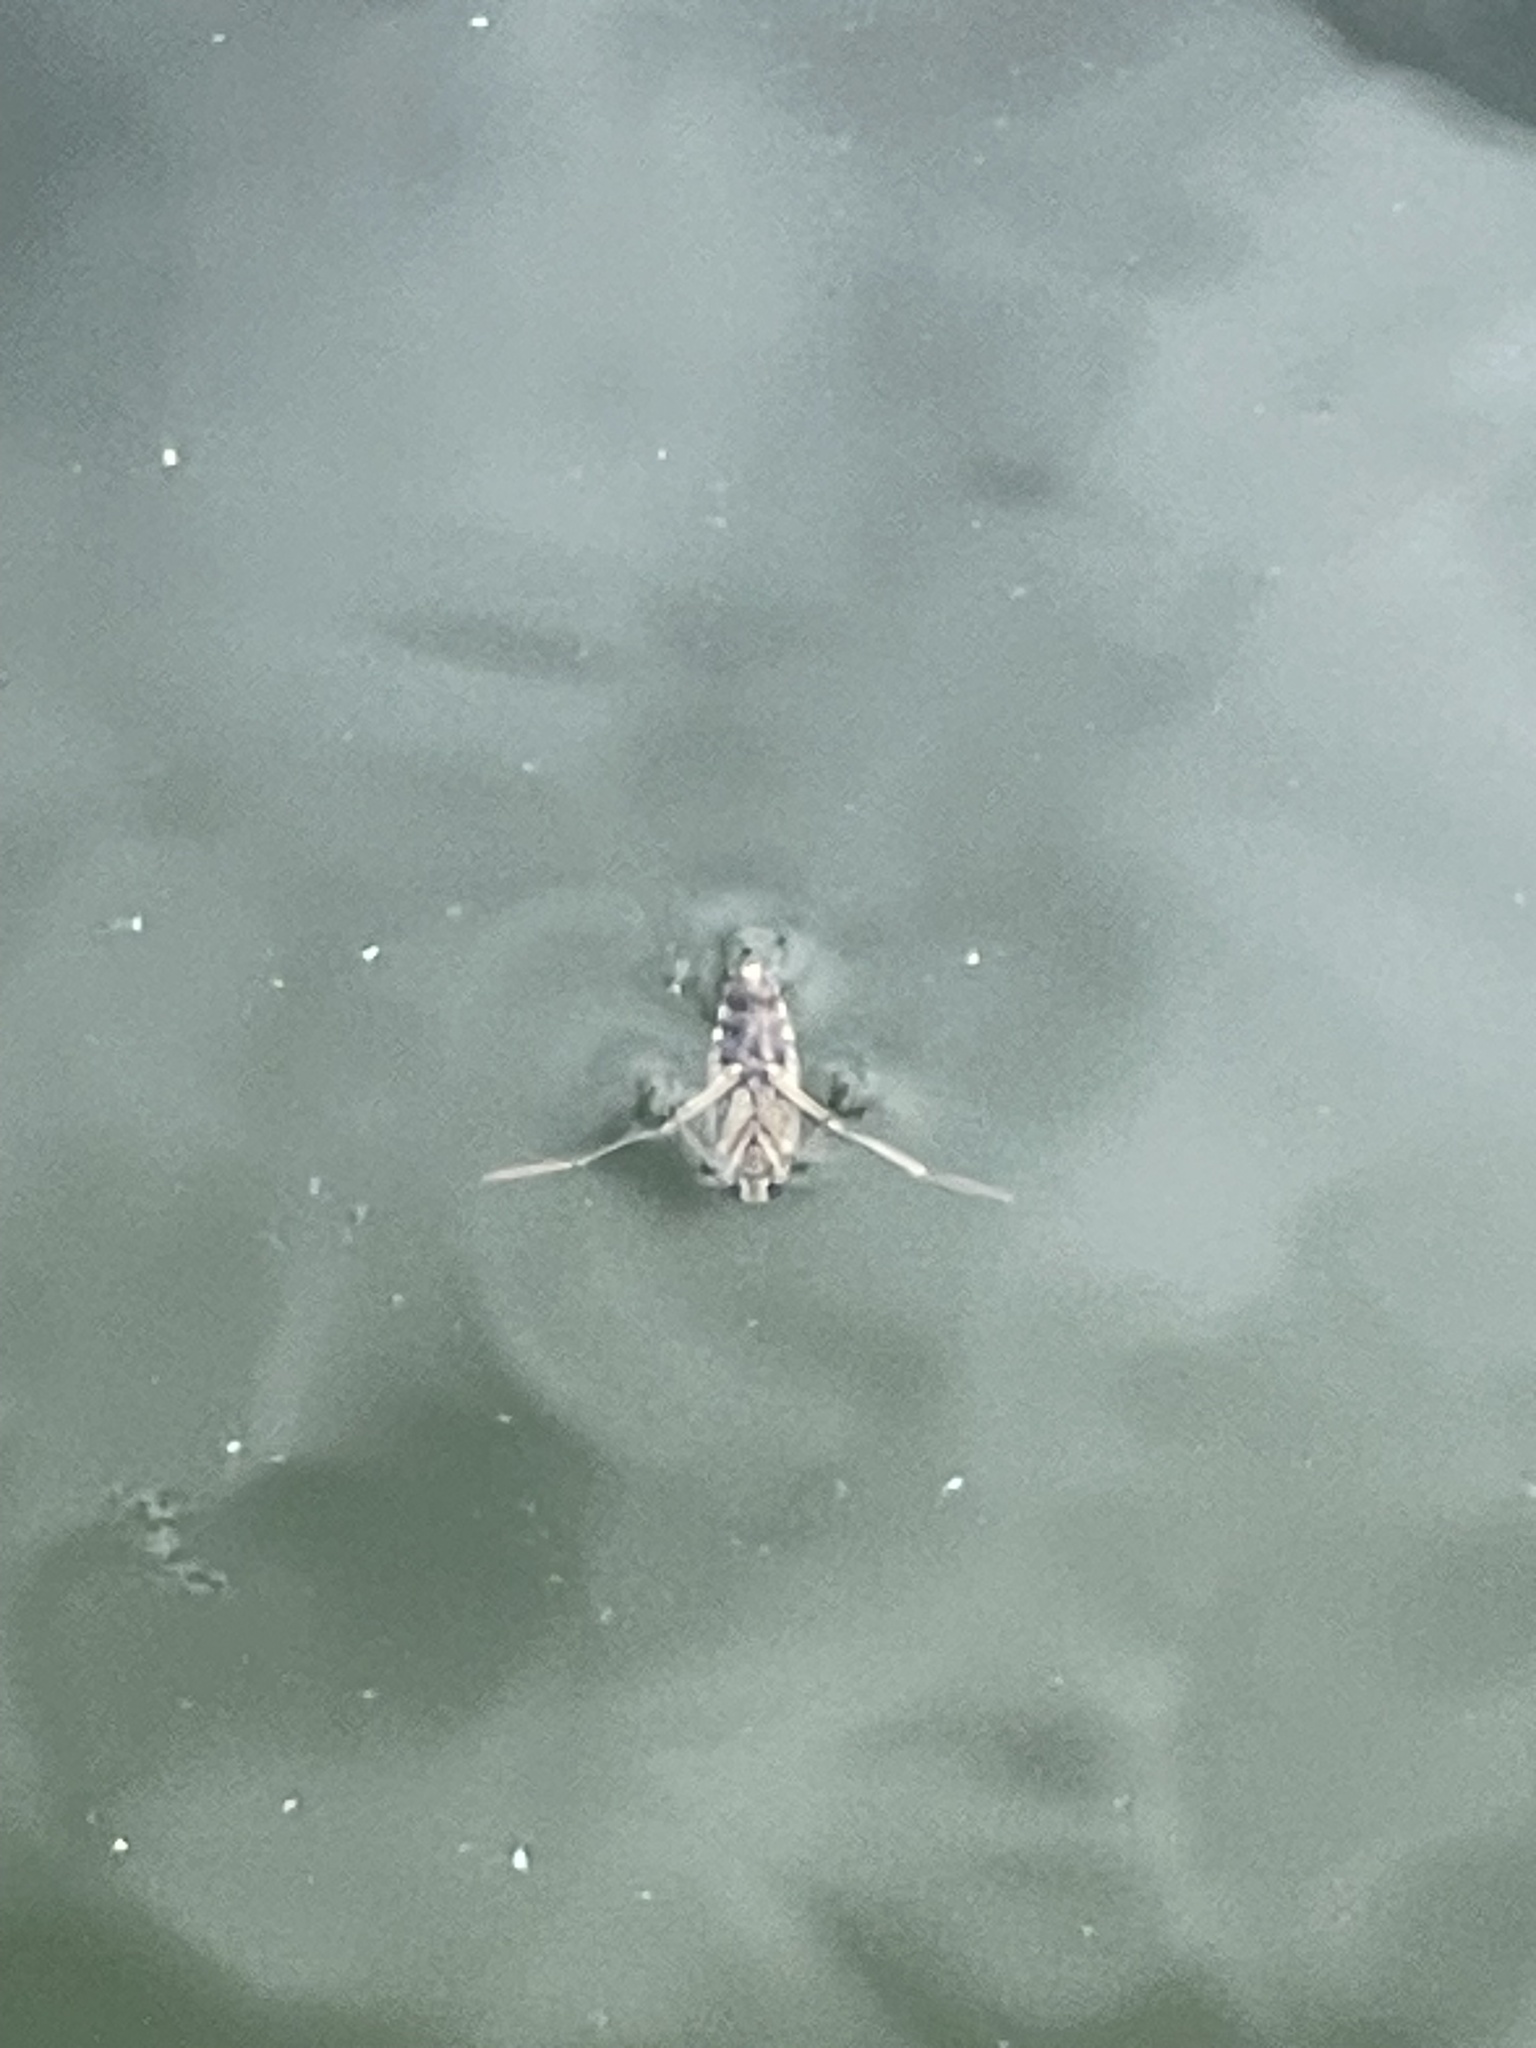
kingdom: Animalia
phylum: Arthropoda
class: Insecta
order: Hemiptera
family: Notonectidae
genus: Notonecta
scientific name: Notonecta
